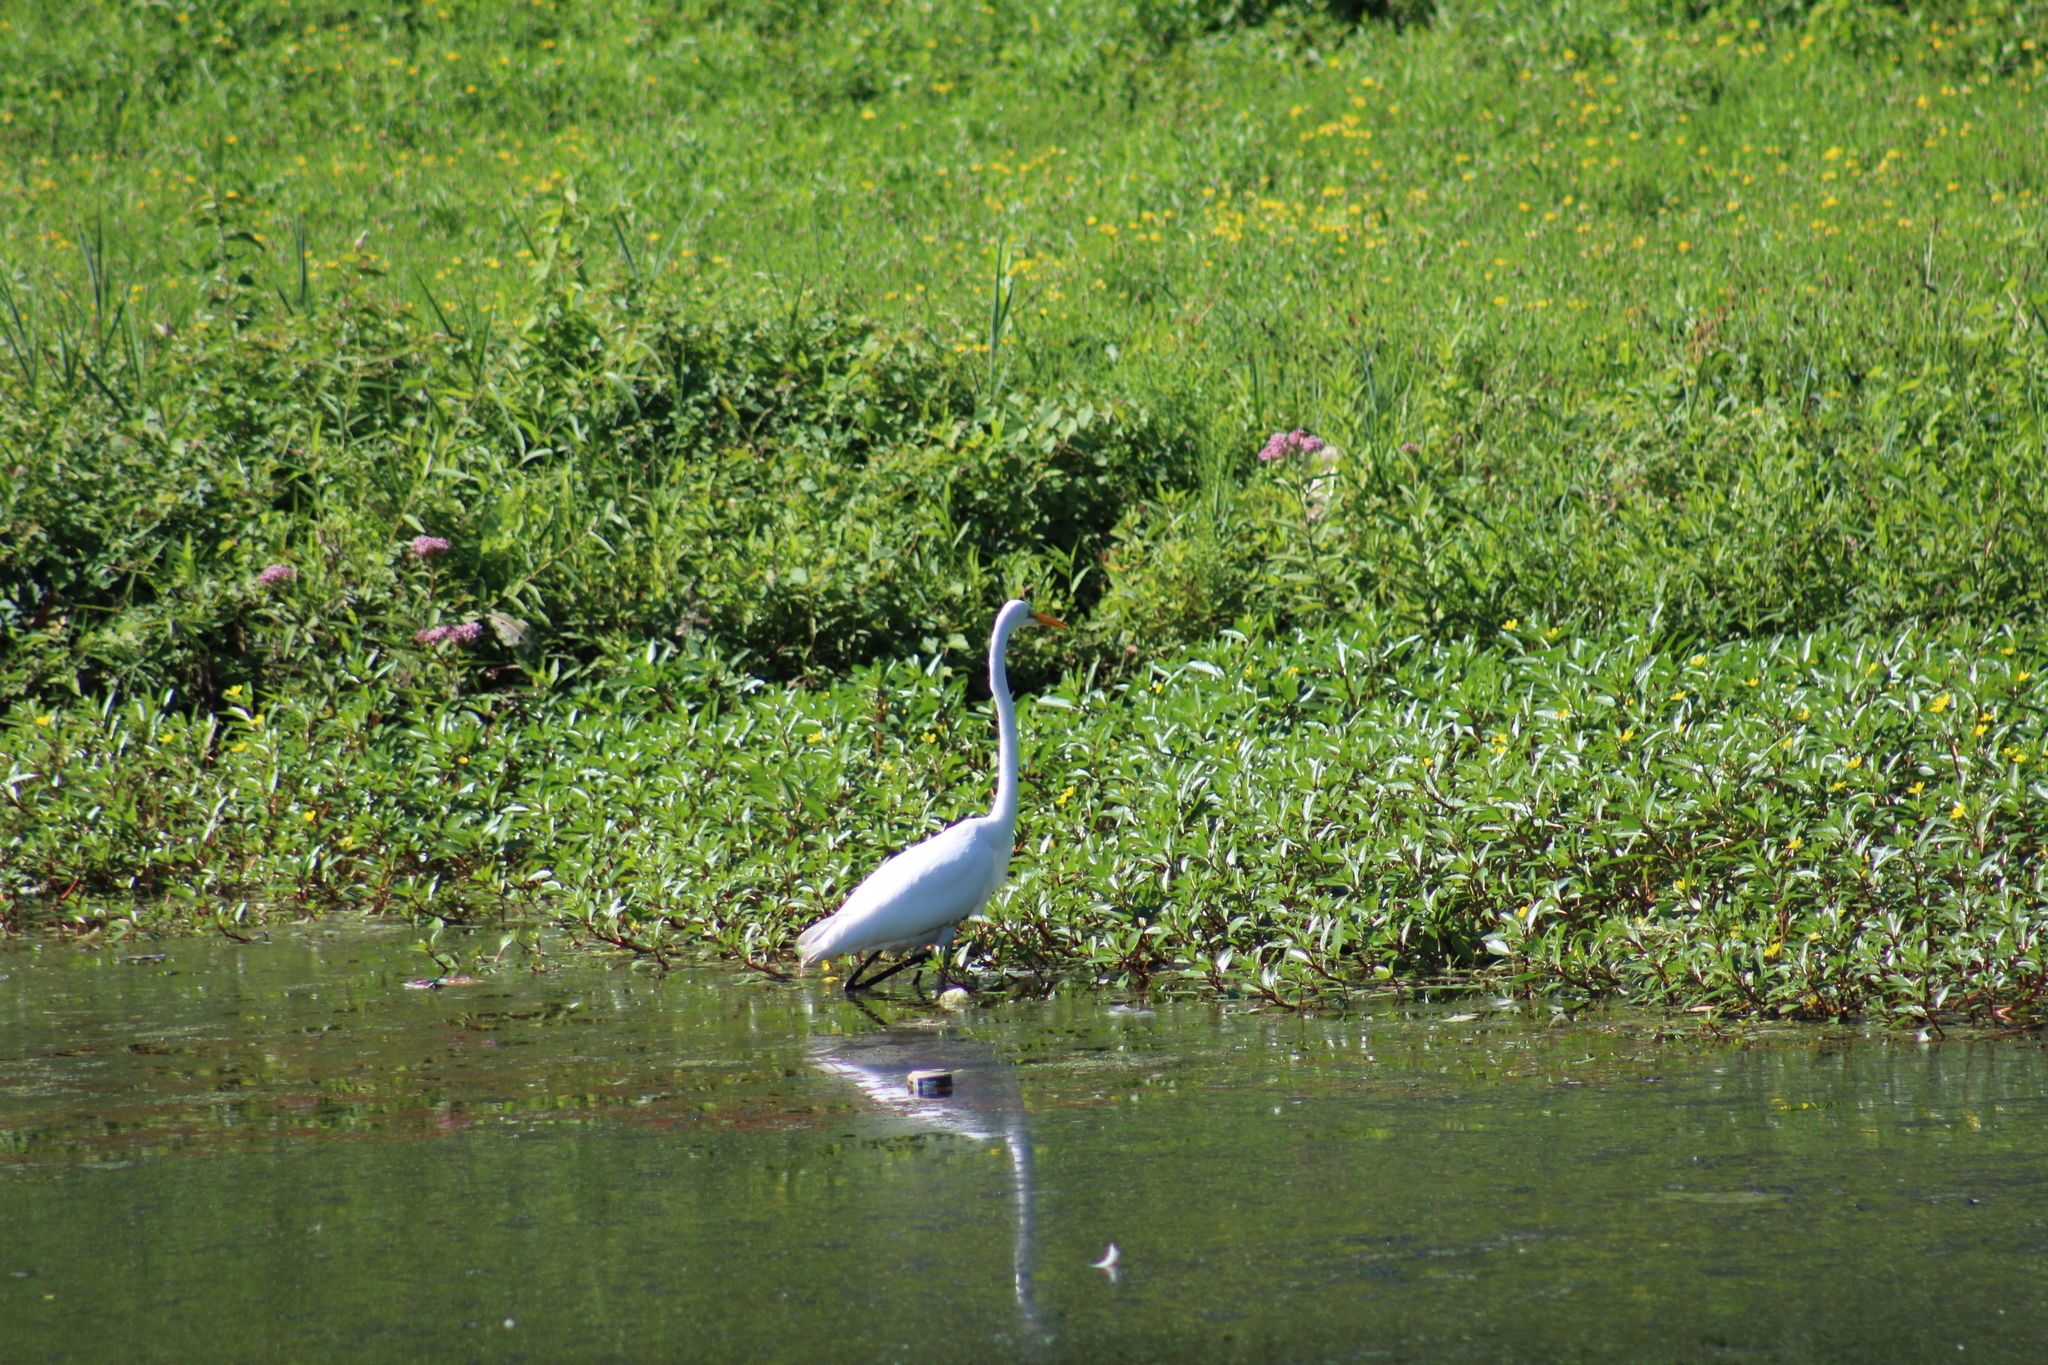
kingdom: Animalia
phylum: Chordata
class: Aves
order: Pelecaniformes
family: Ardeidae
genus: Ardea
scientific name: Ardea alba
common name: Great egret
